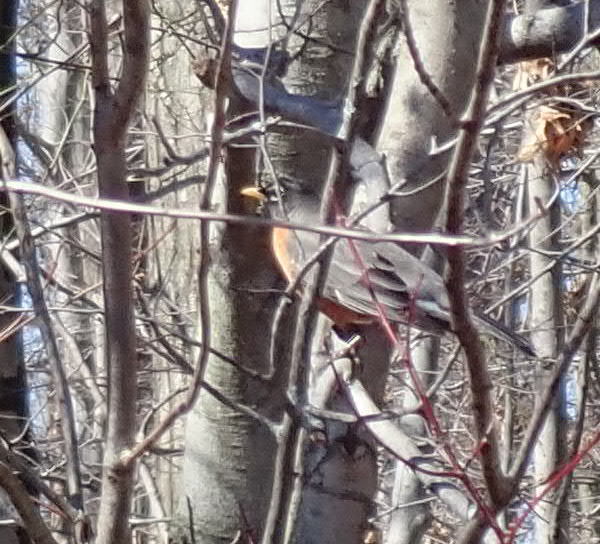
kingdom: Animalia
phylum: Chordata
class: Aves
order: Passeriformes
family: Turdidae
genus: Turdus
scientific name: Turdus migratorius
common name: American robin
